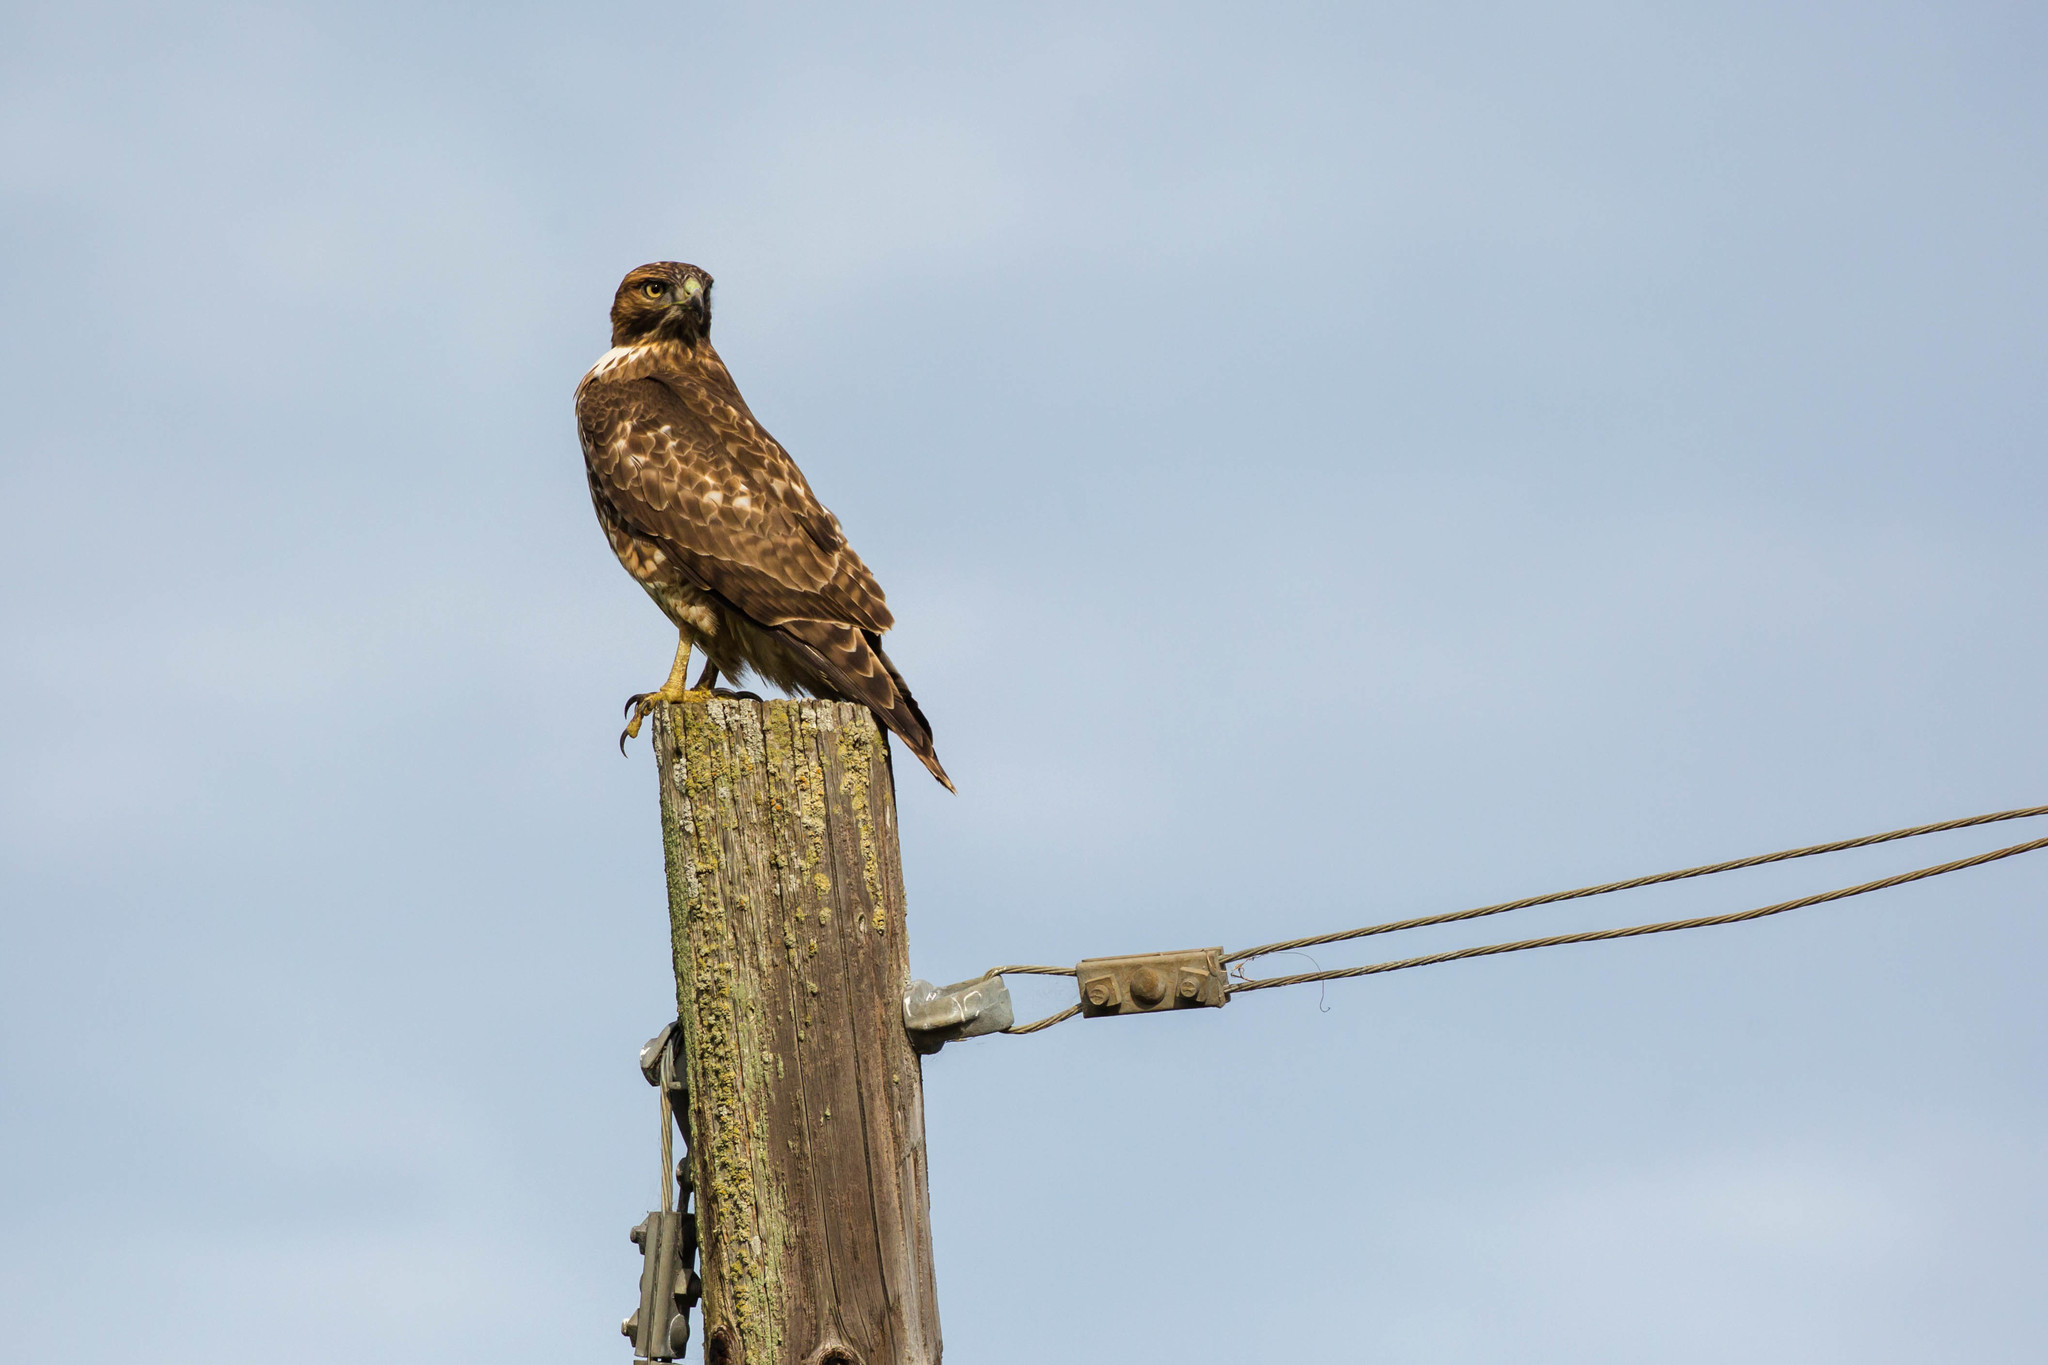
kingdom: Animalia
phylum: Chordata
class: Aves
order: Accipitriformes
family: Accipitridae
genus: Buteo
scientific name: Buteo lineatus
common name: Red-shouldered hawk
